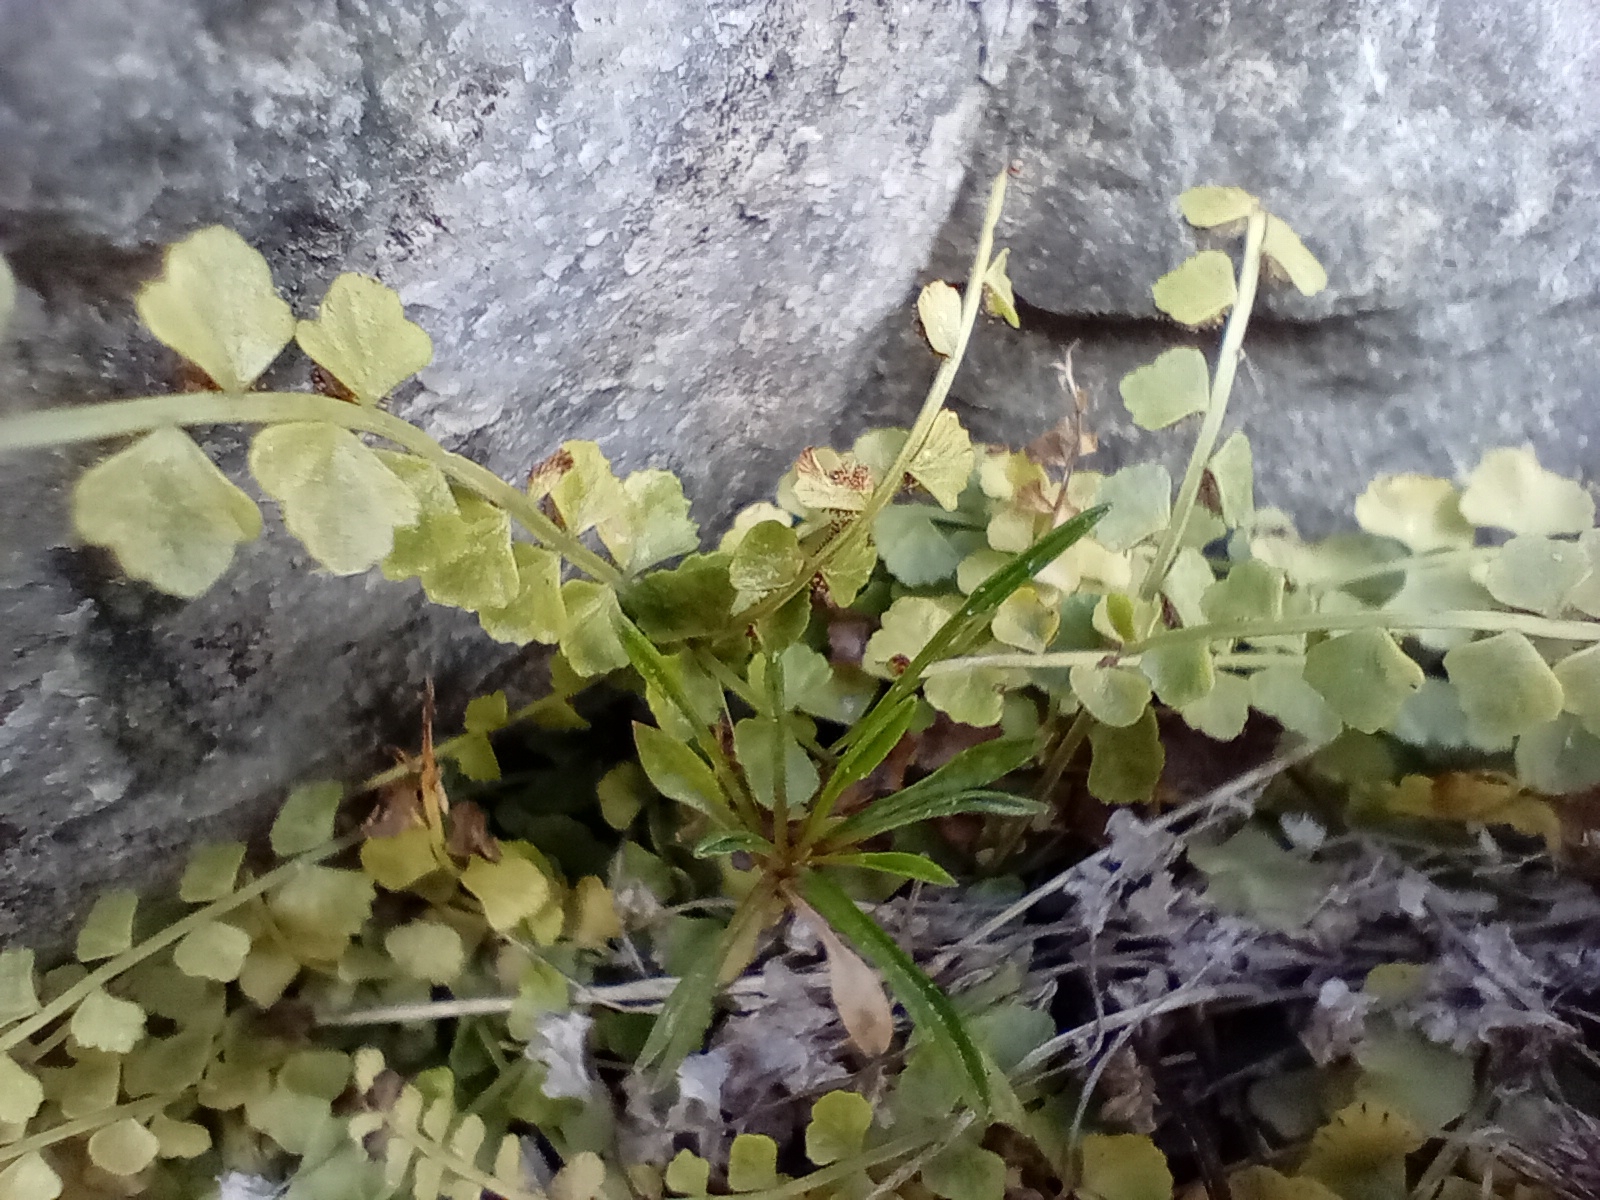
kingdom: Plantae
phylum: Tracheophyta
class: Polypodiopsida
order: Polypodiales
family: Aspleniaceae
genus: Asplenium
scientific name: Asplenium flabellifolium
